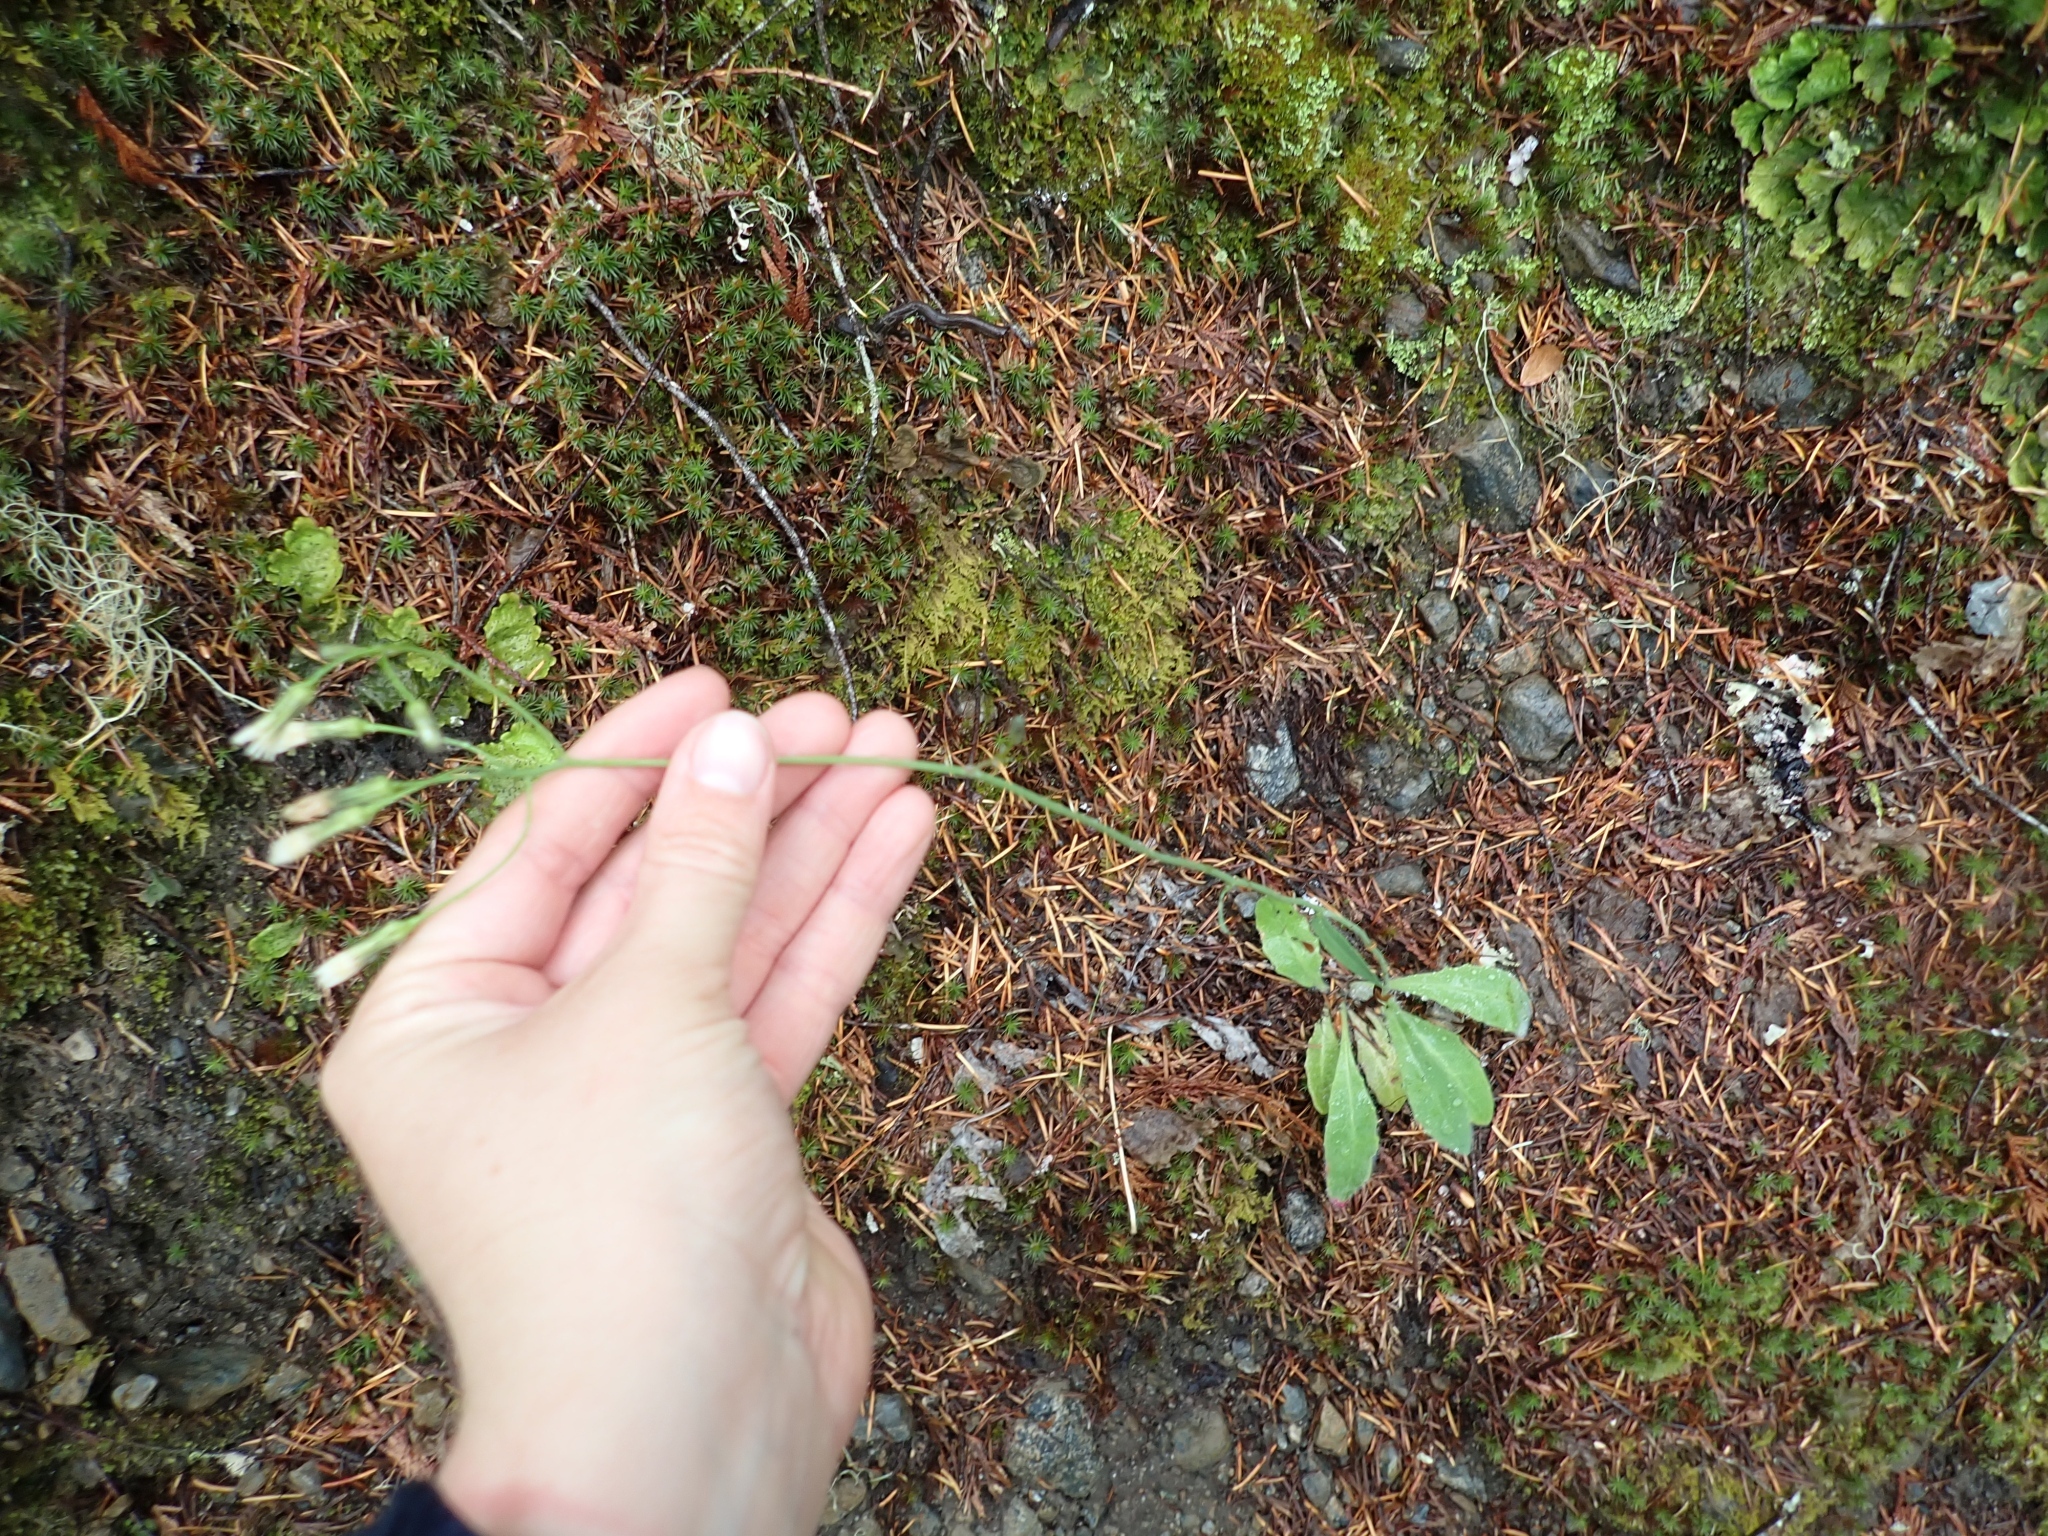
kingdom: Plantae
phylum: Tracheophyta
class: Magnoliopsida
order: Asterales
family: Asteraceae
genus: Hieracium
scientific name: Hieracium albiflorum
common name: White hawkweed
